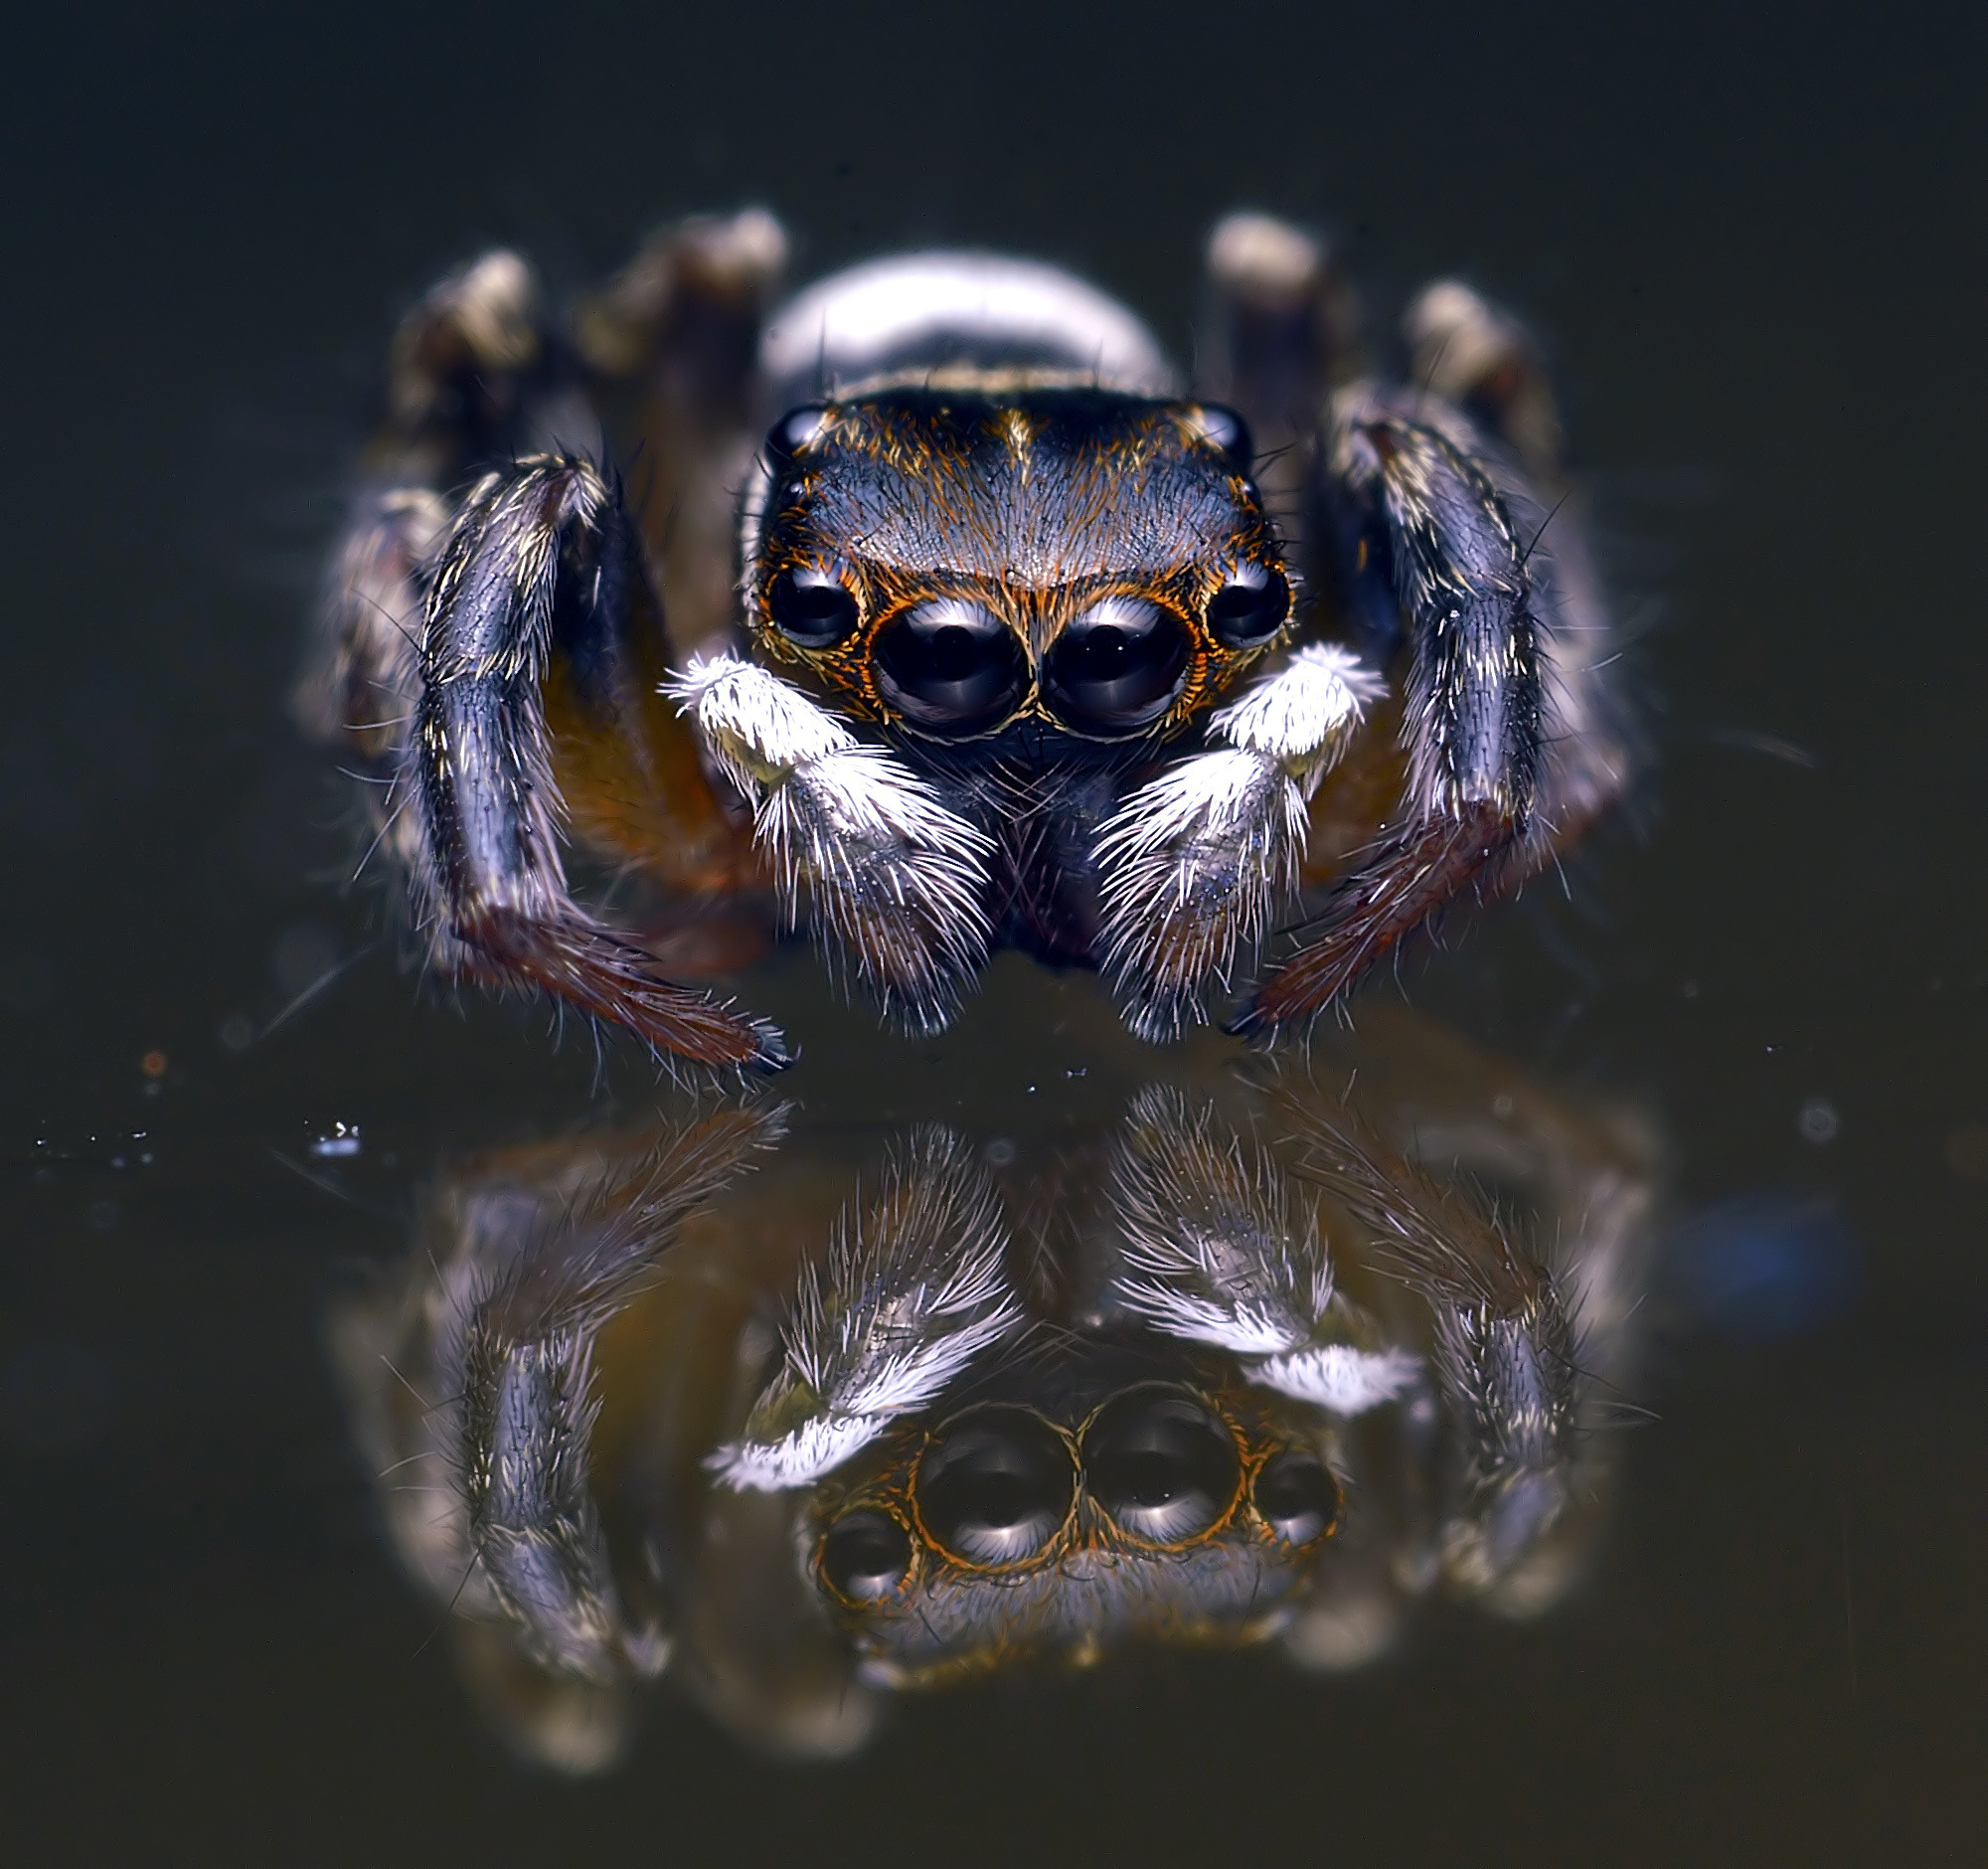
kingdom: Animalia
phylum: Arthropoda
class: Arachnida
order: Araneae
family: Salticidae
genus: Hasarius
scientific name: Hasarius adansoni
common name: Jumping spider
